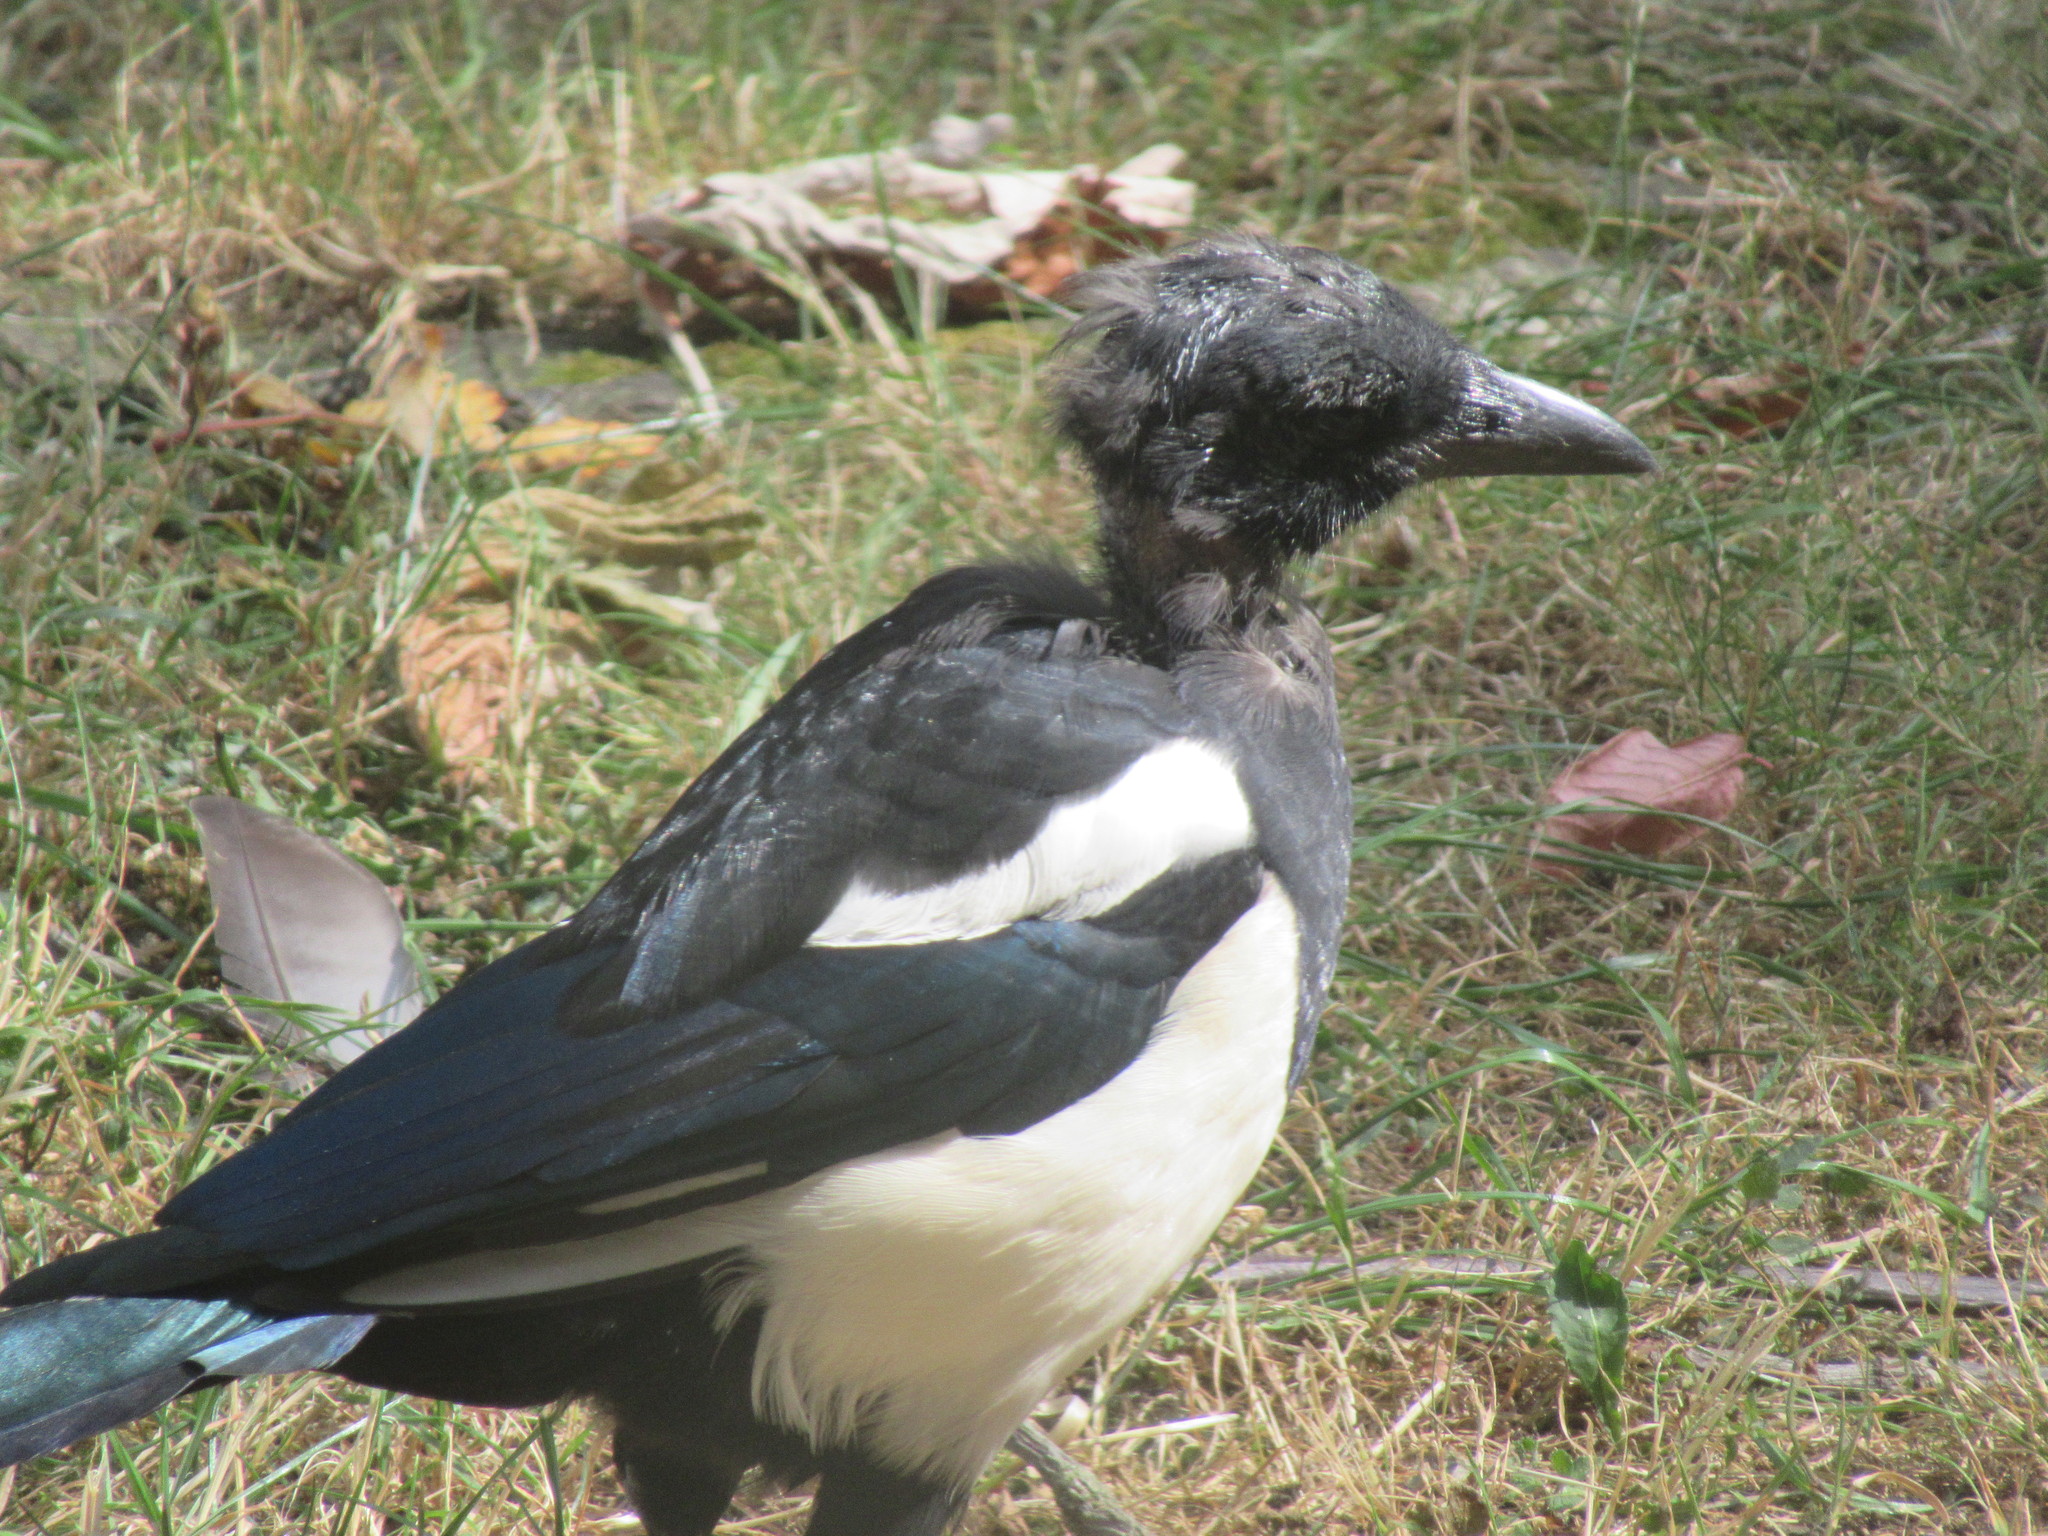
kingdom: Animalia
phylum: Chordata
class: Aves
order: Passeriformes
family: Corvidae
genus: Pica
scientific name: Pica pica
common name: Eurasian magpie
